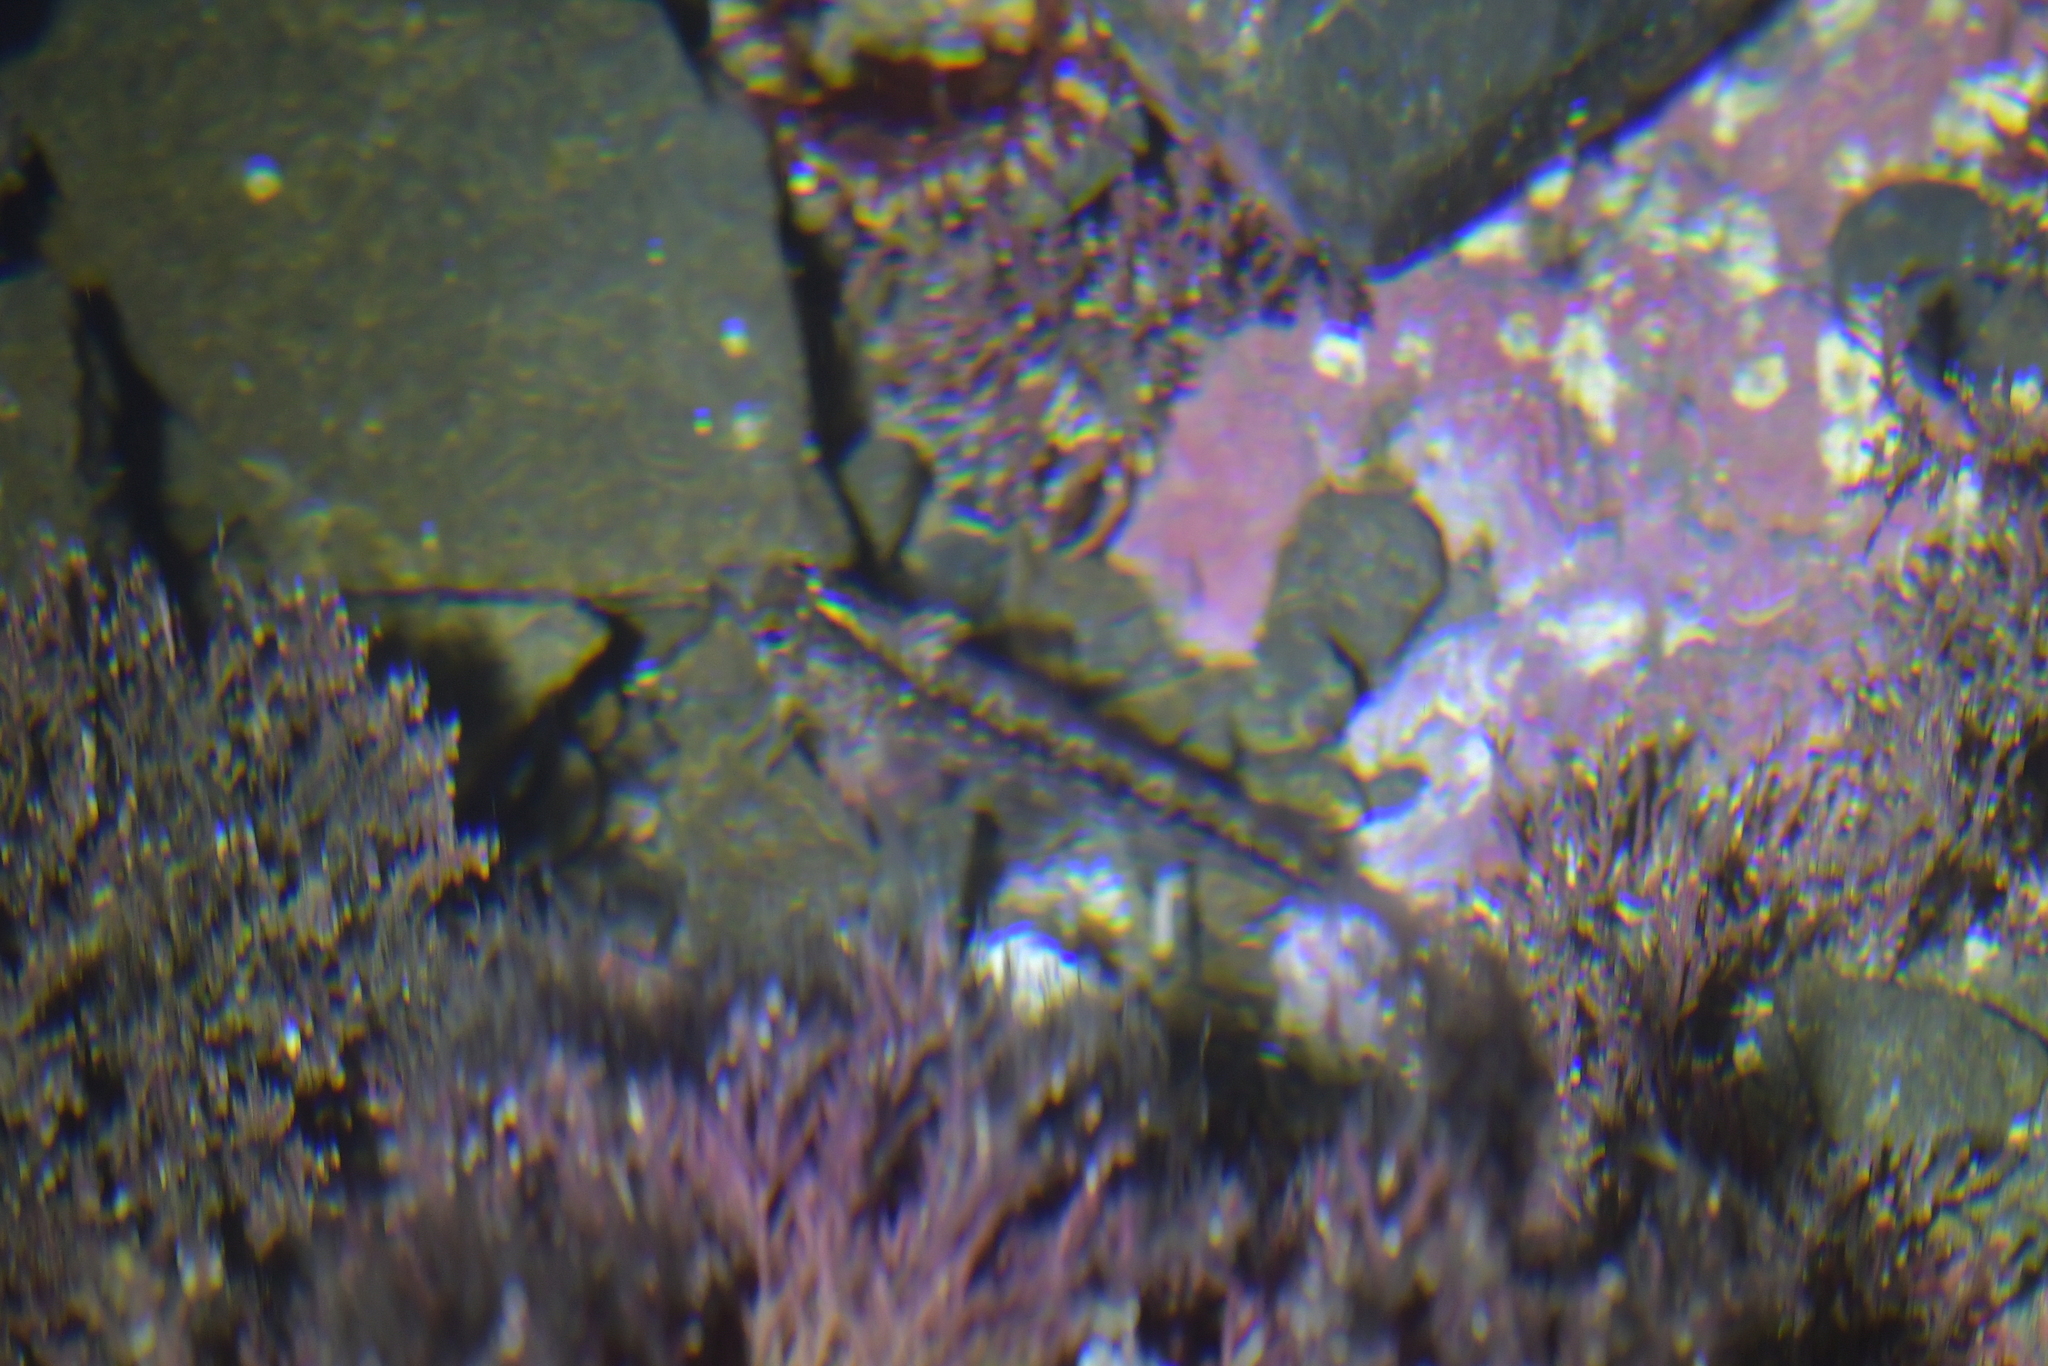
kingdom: Animalia
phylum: Chordata
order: Perciformes
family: Tripterygiidae
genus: Forsterygion
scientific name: Forsterygion lapillum
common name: Common triplefin
